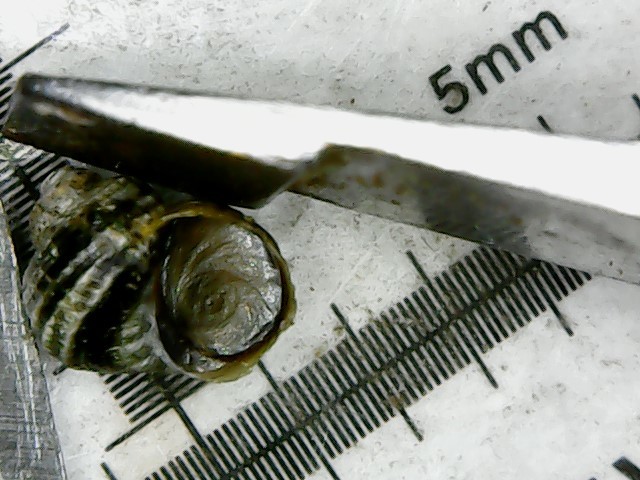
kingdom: Animalia
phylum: Mollusca
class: Gastropoda
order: Littorinimorpha
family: Littorinidae
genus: Littorina
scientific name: Littorina saxatilis
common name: Black-lined periwinkle
